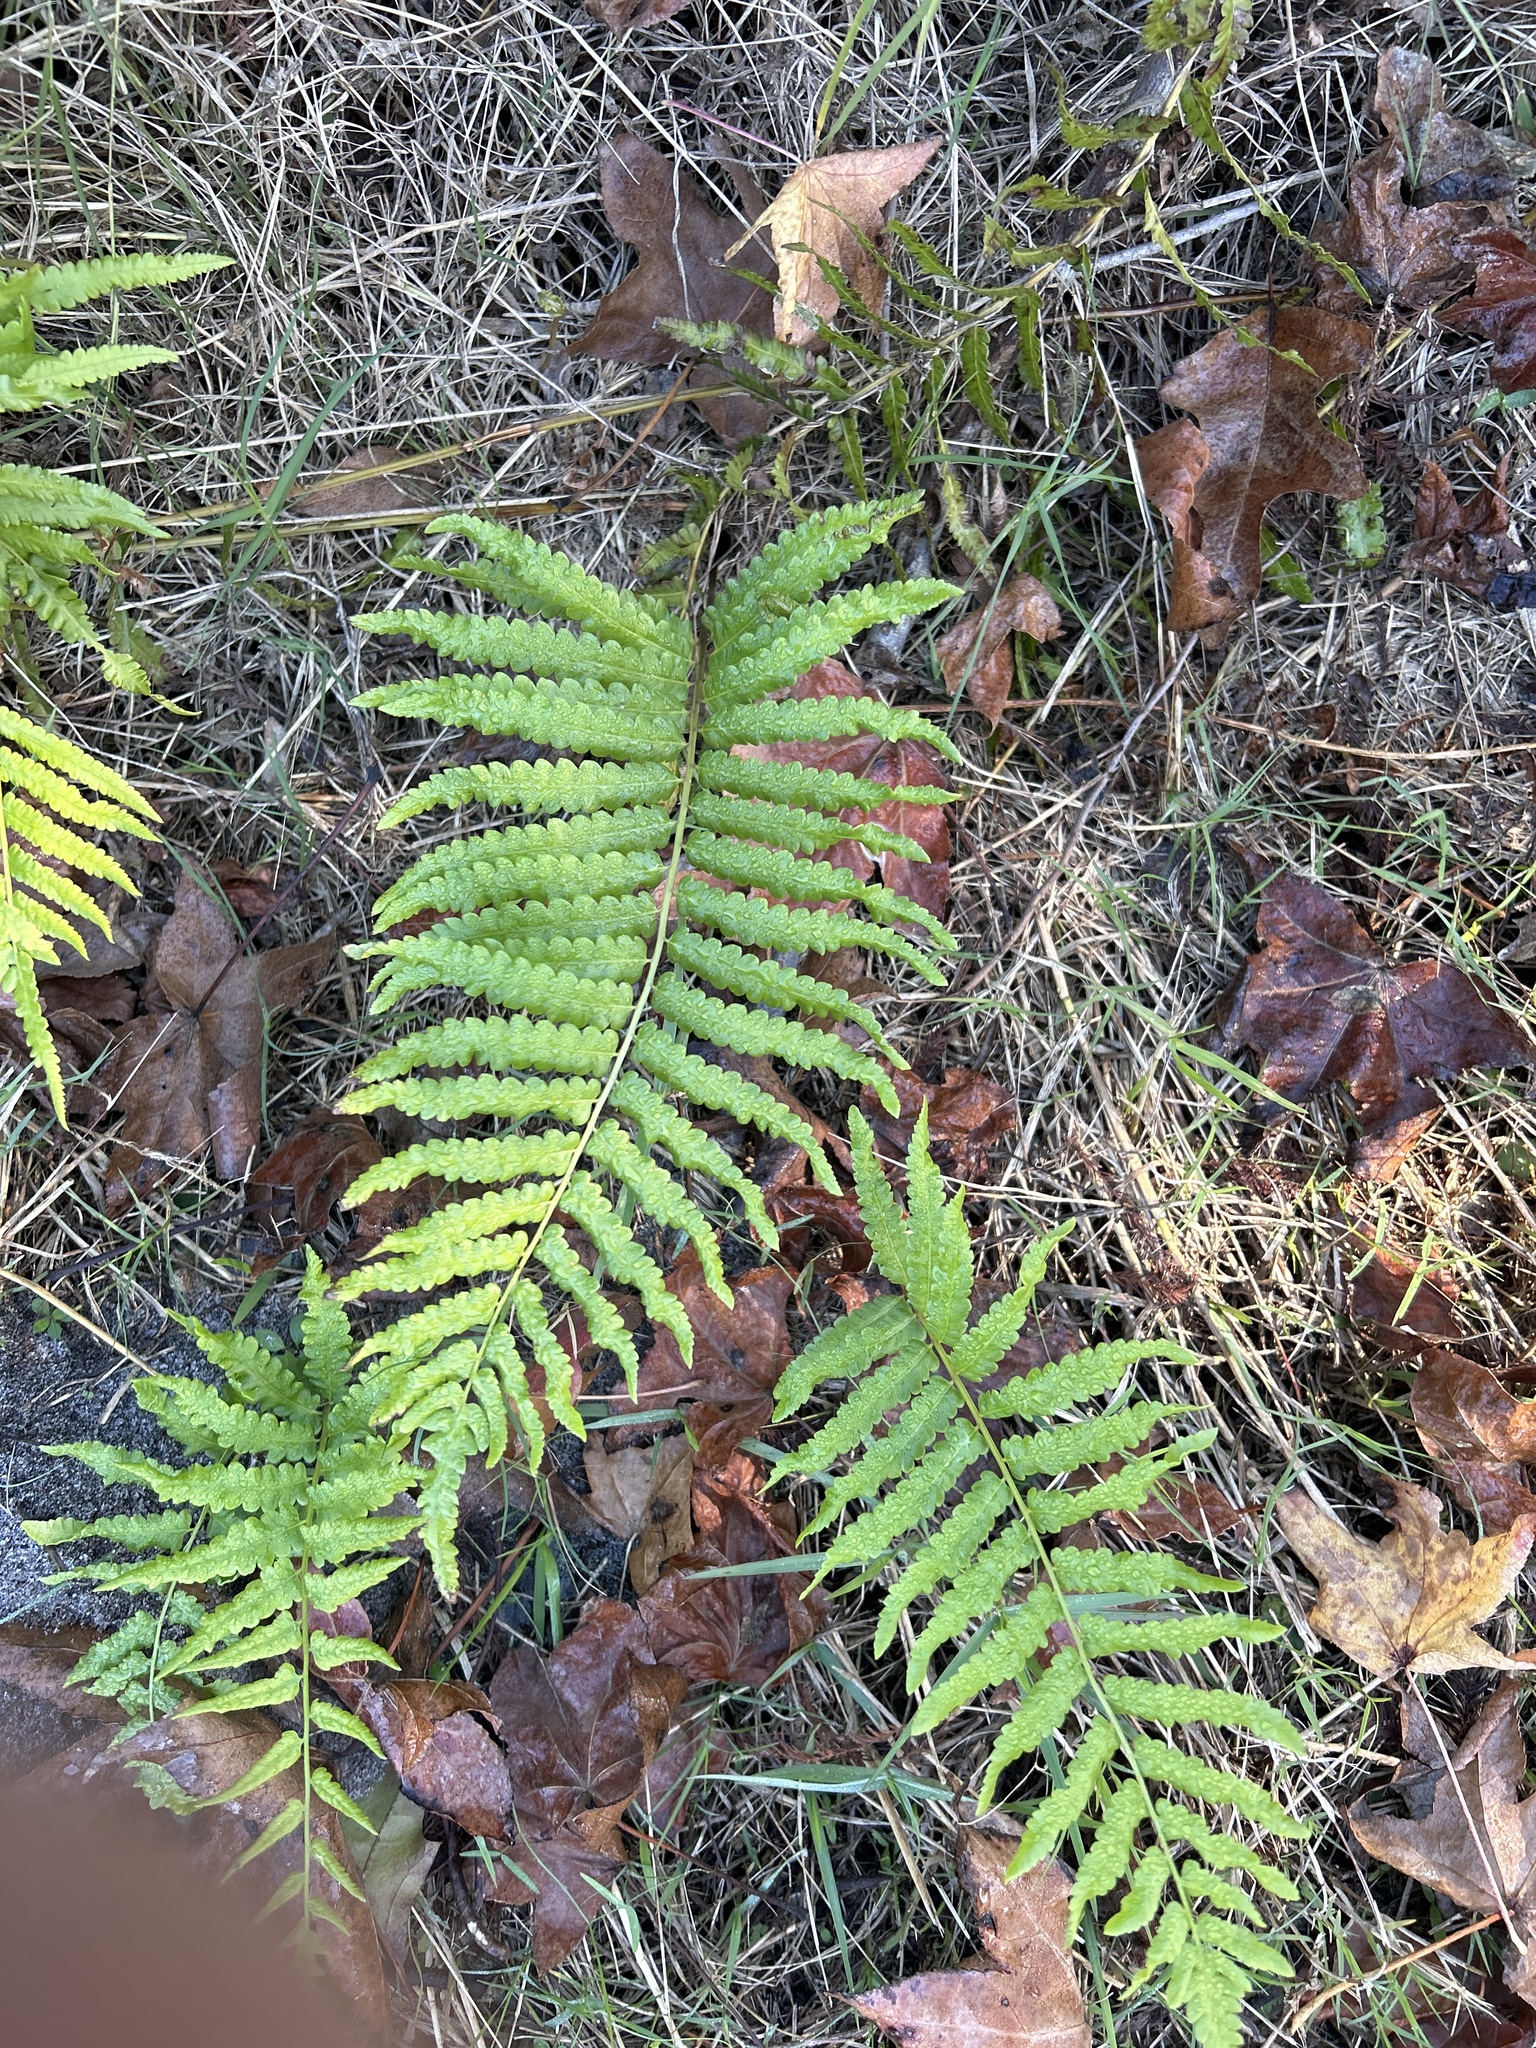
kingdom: Plantae
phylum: Tracheophyta
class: Polypodiopsida
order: Polypodiales
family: Thelypteridaceae
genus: Cyclosorus
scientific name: Cyclosorus interruptus
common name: Neke fern
